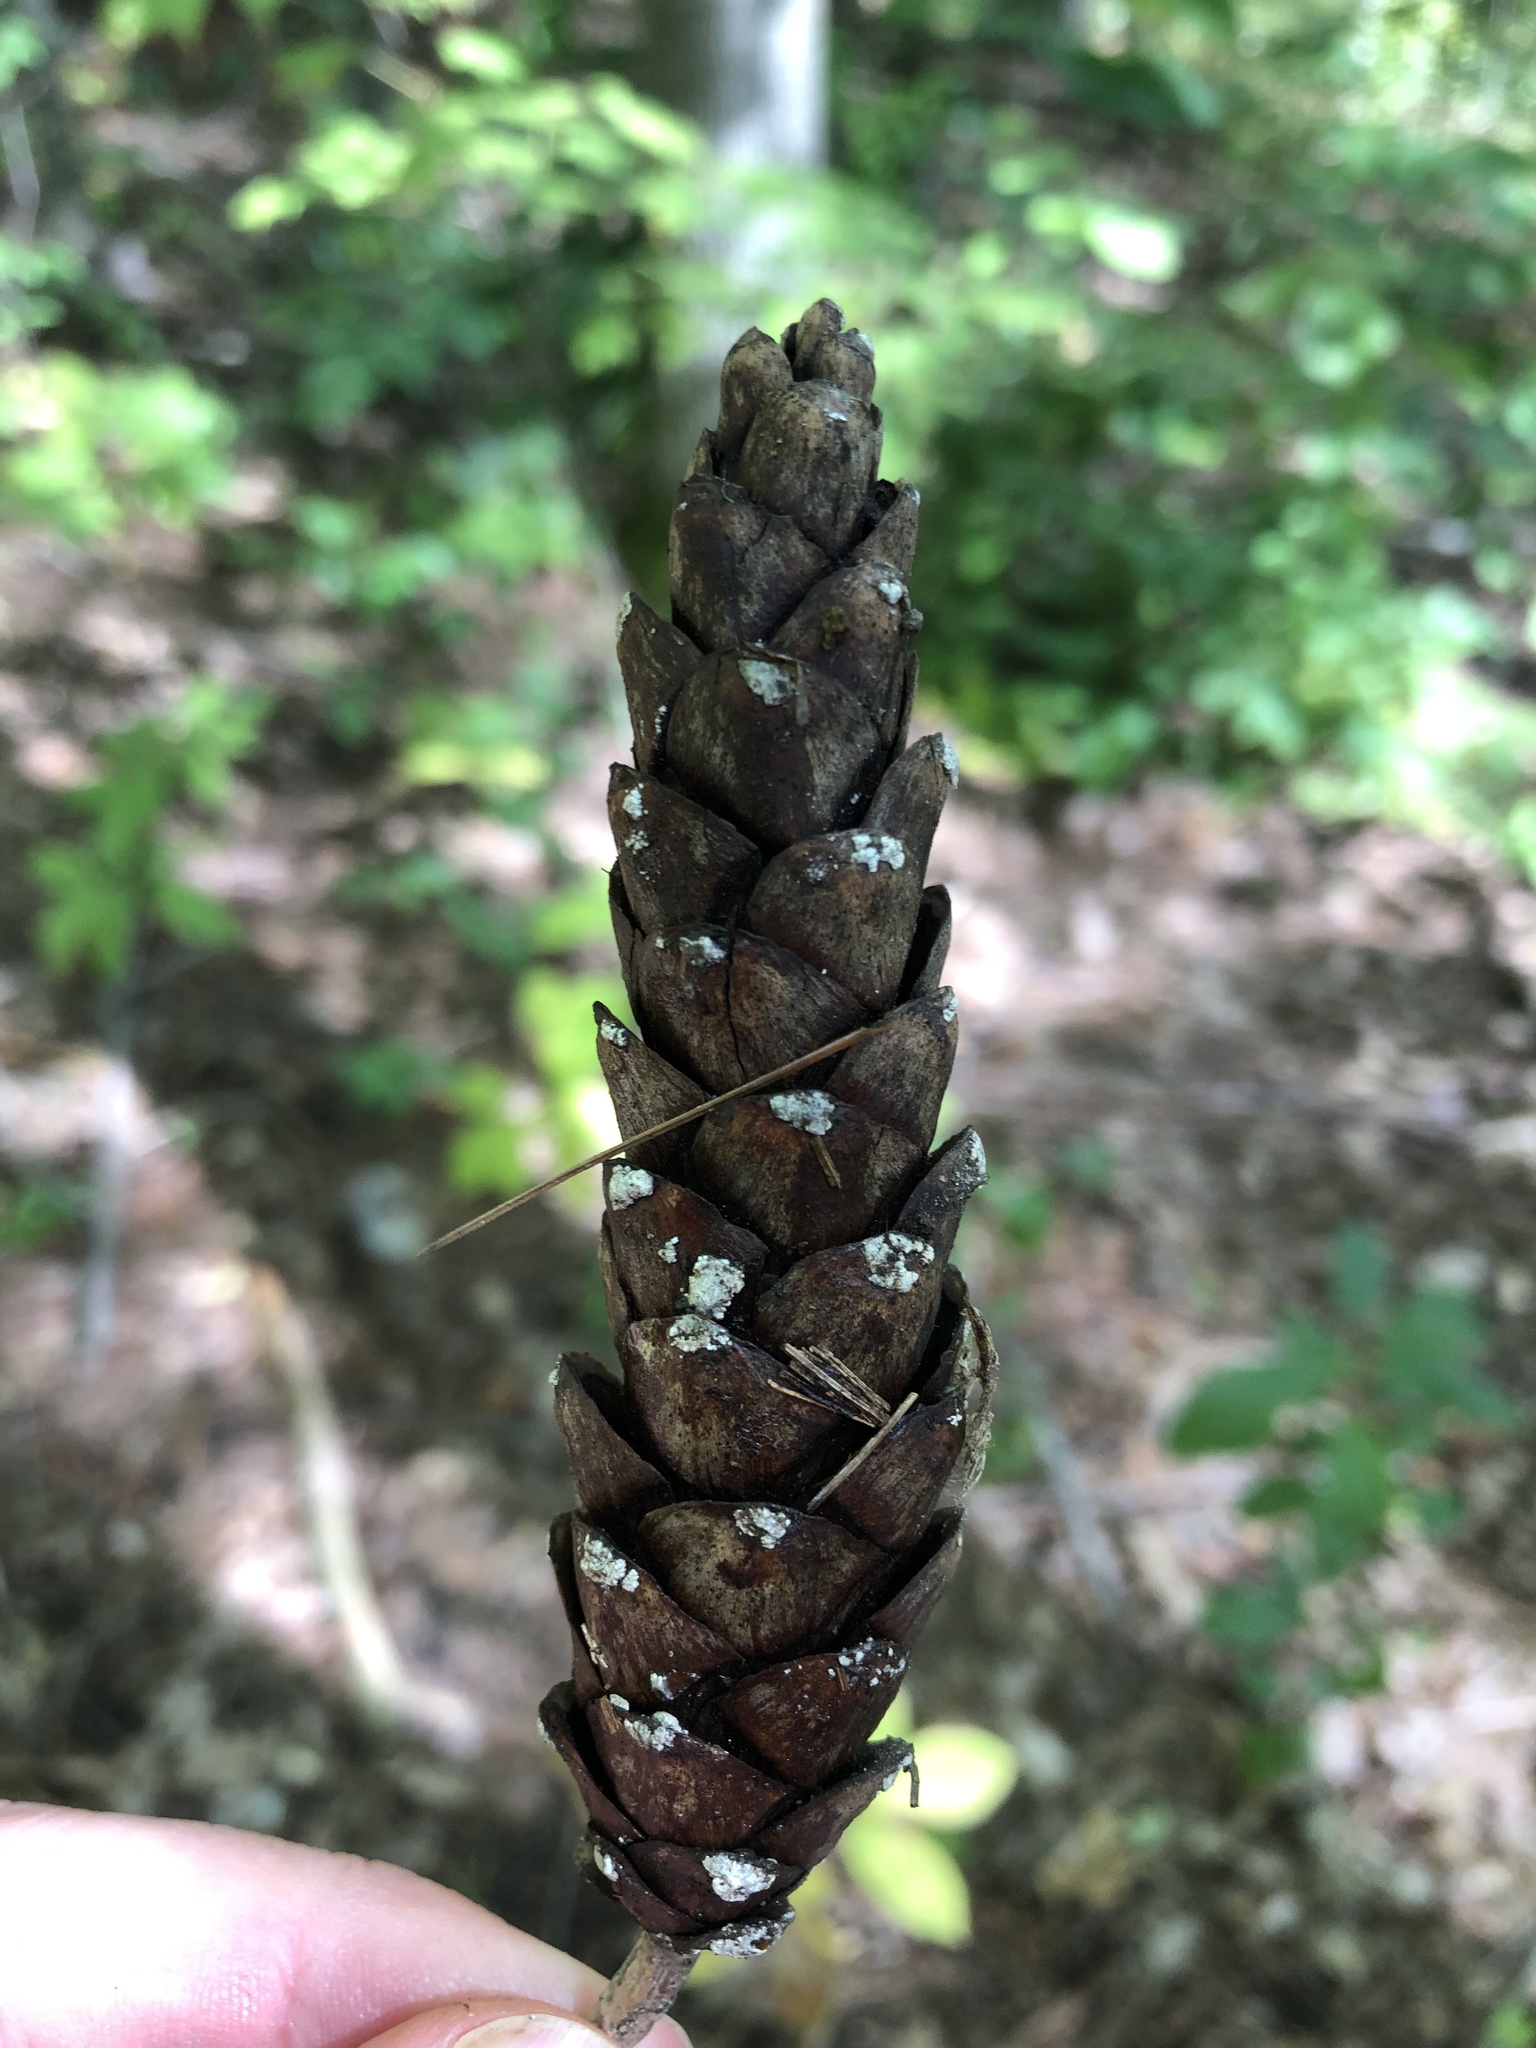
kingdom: Plantae
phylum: Tracheophyta
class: Pinopsida
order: Pinales
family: Pinaceae
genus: Pinus
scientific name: Pinus strobus
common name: Weymouth pine
